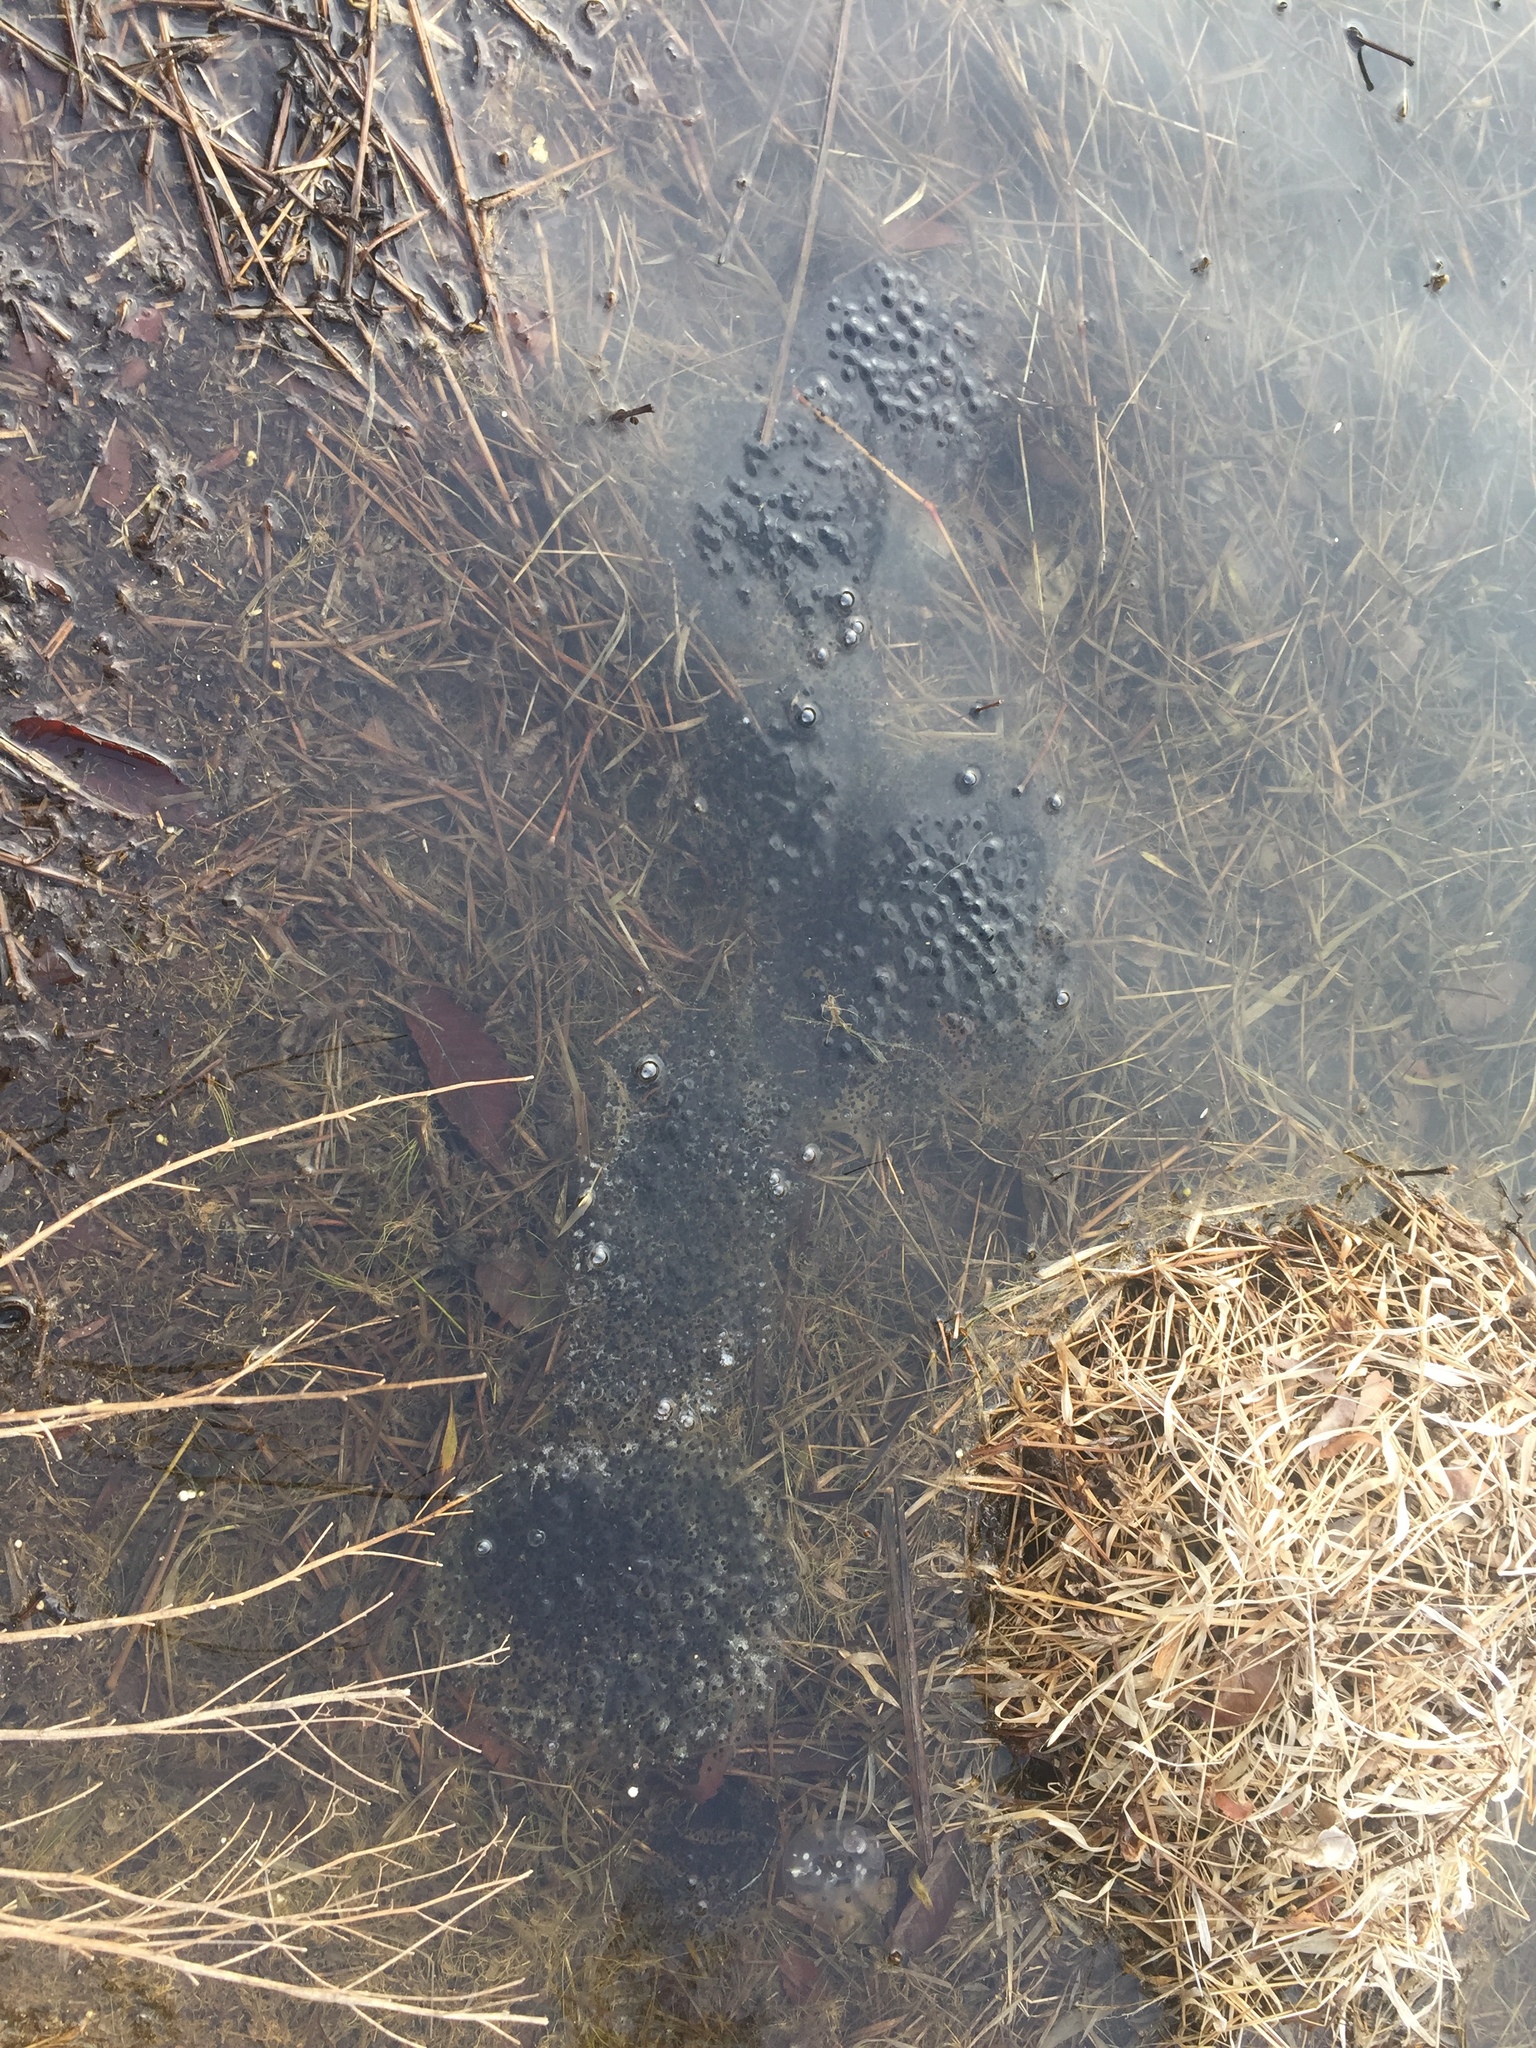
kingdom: Animalia
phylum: Chordata
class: Amphibia
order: Anura
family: Ranidae
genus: Rana
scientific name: Rana uenoi
